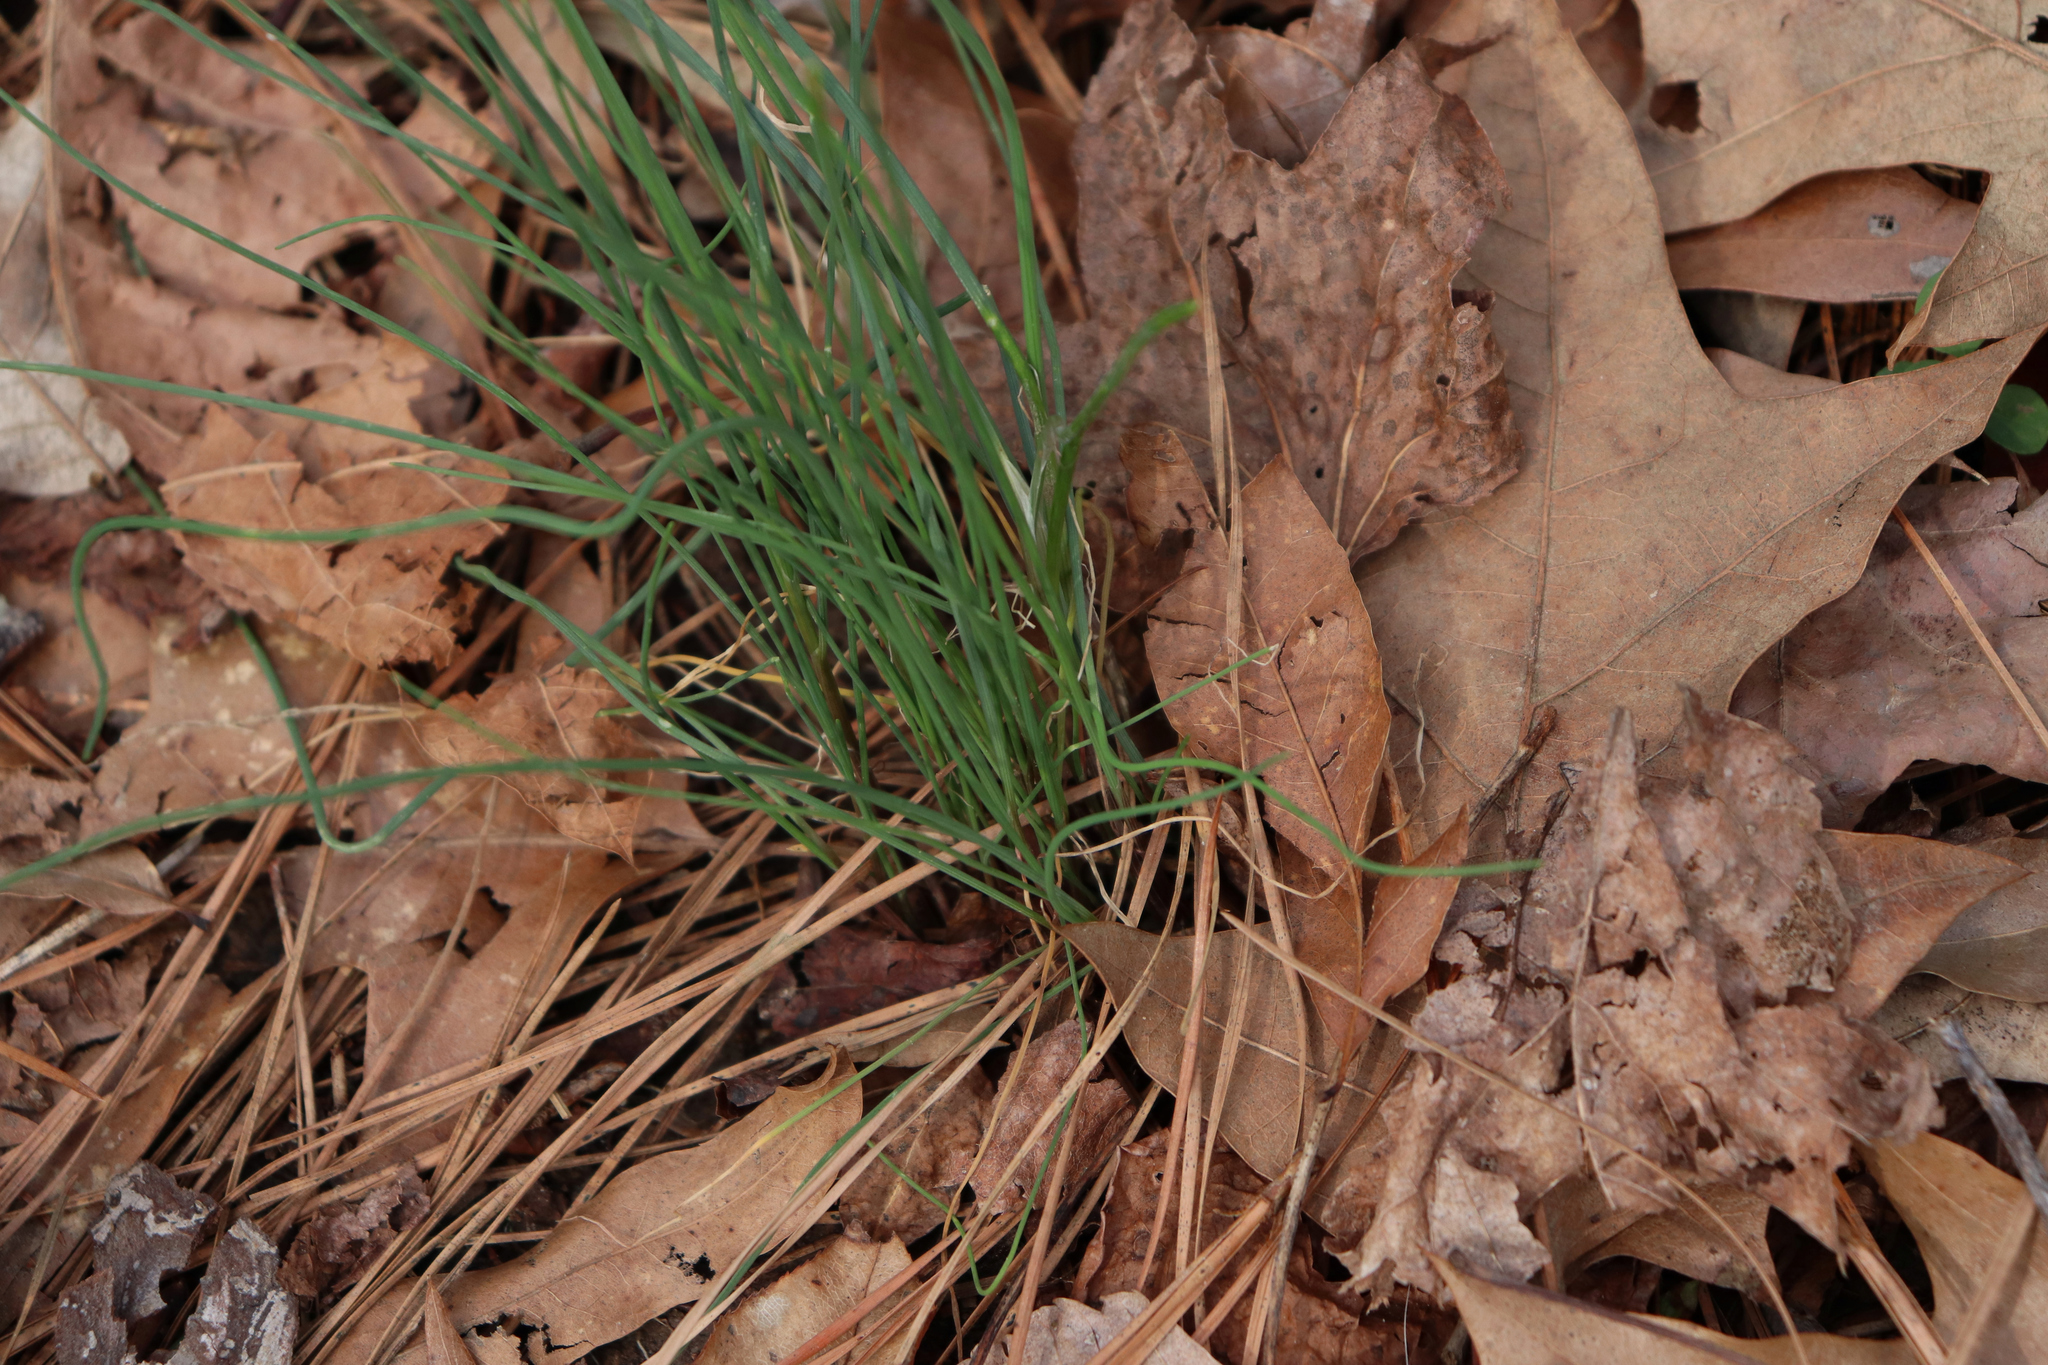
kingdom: Plantae
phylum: Tracheophyta
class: Liliopsida
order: Asparagales
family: Amaryllidaceae
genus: Allium
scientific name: Allium vineale
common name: Crow garlic
